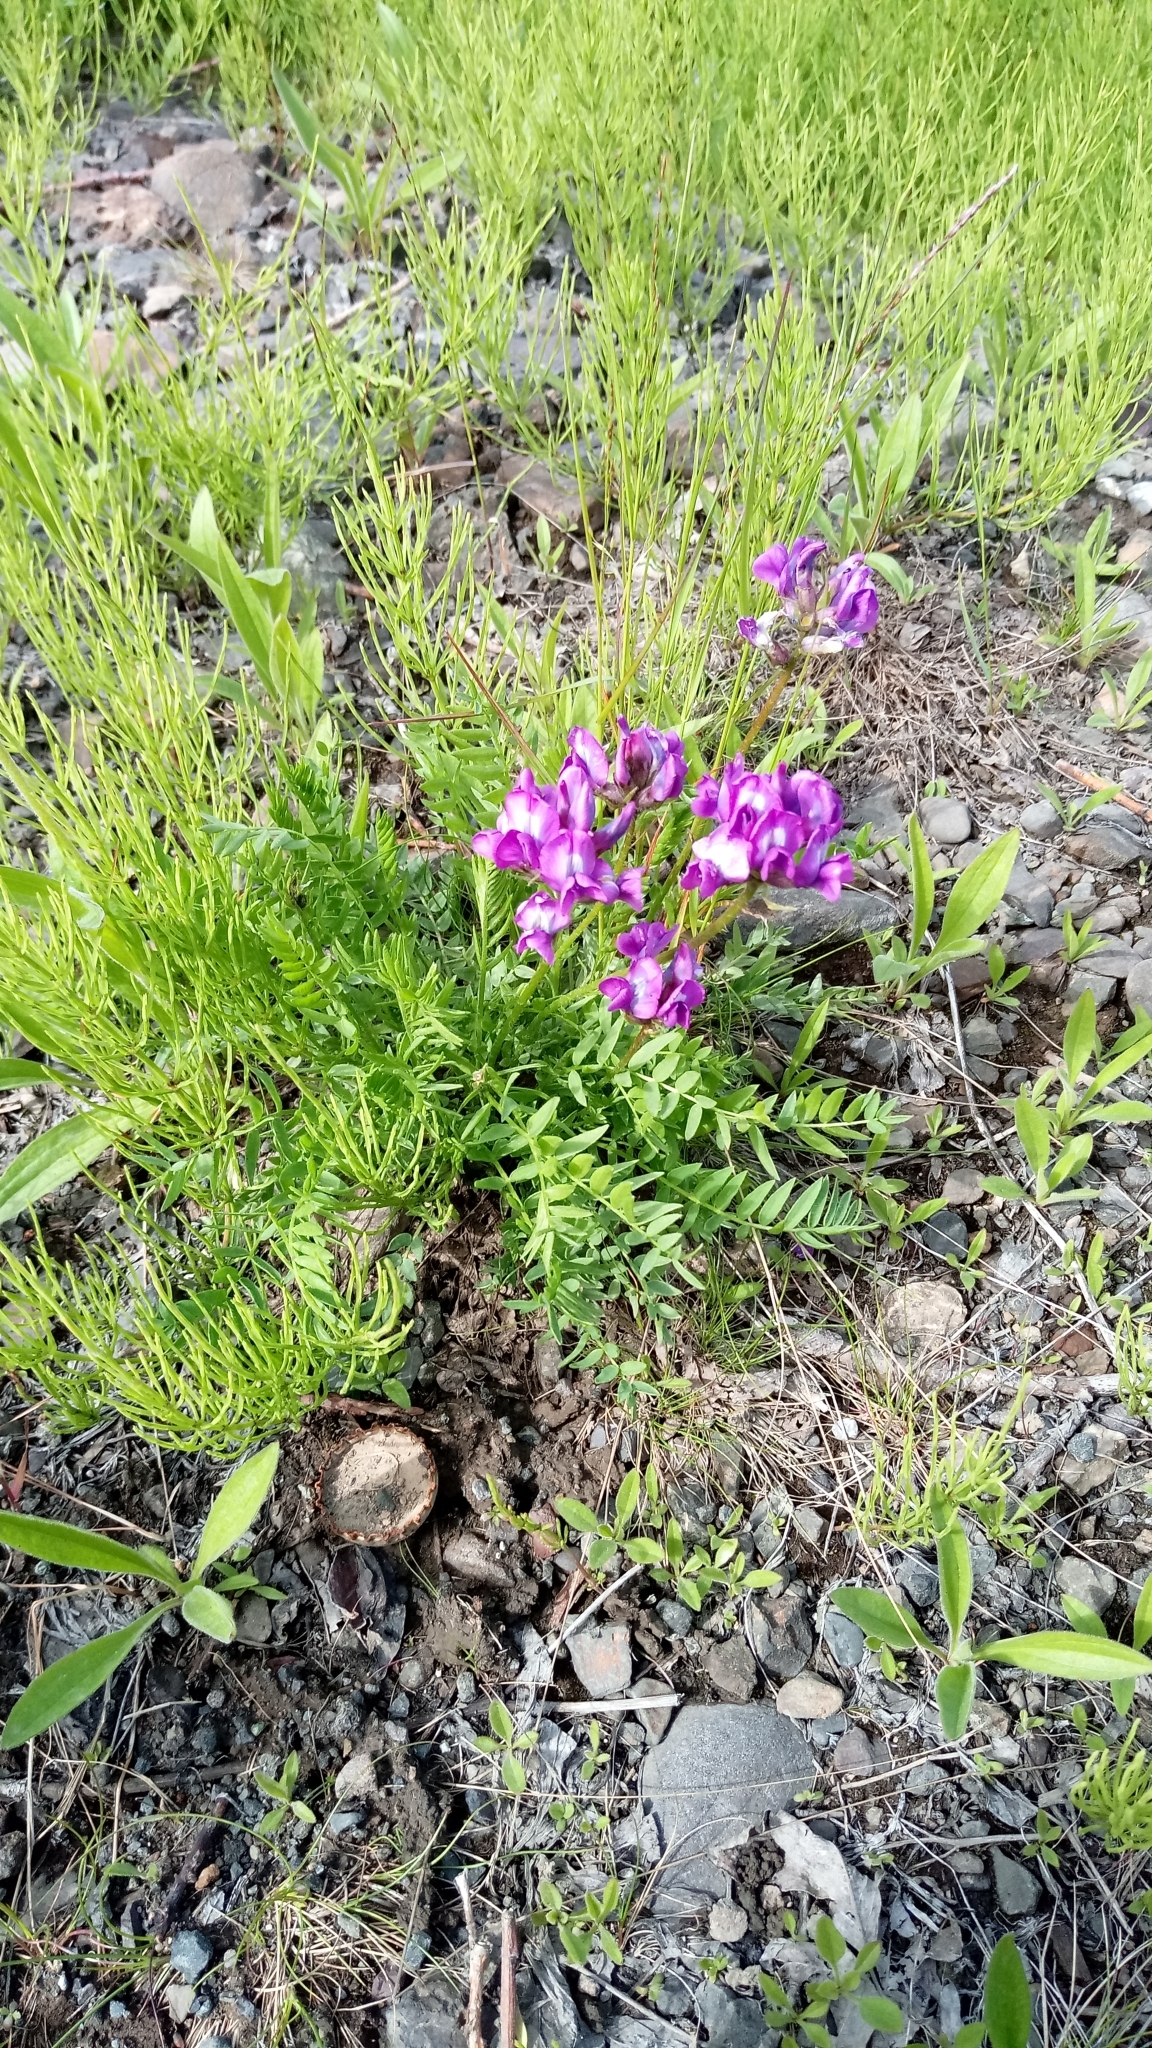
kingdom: Plantae
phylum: Tracheophyta
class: Magnoliopsida
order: Fabales
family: Fabaceae
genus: Oxytropis
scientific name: Oxytropis adamsiana
